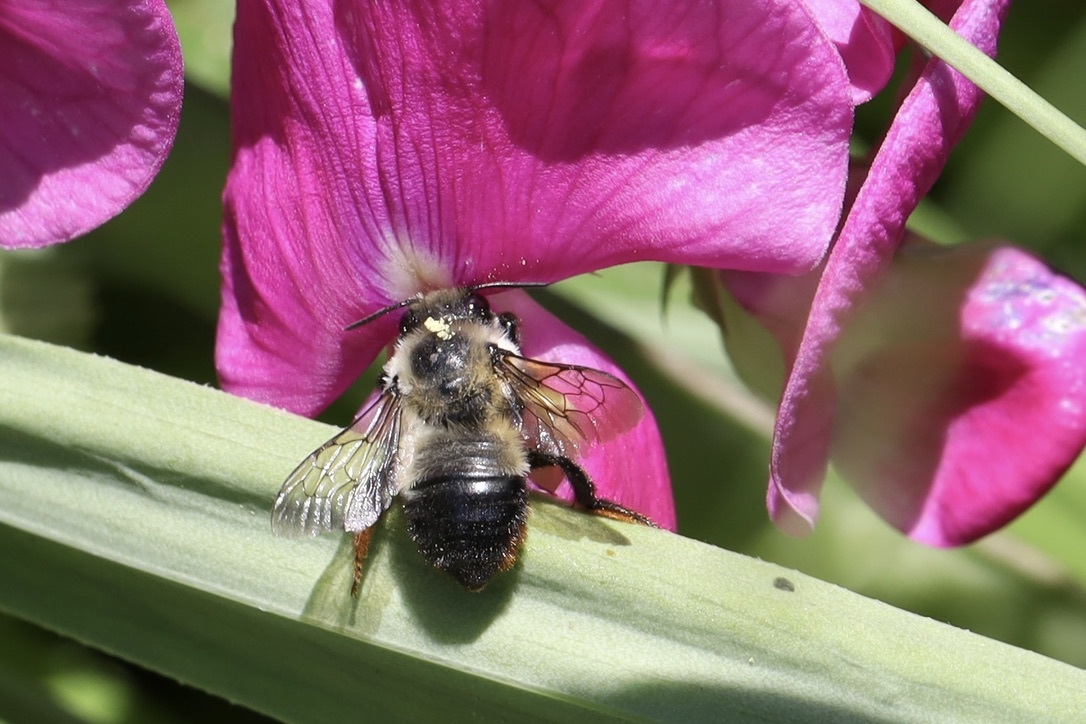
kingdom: Animalia
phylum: Arthropoda
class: Insecta
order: Hymenoptera
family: Megachilidae
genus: Megachile
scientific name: Megachile melanophaea
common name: Black-and-gray leafcutter bee
